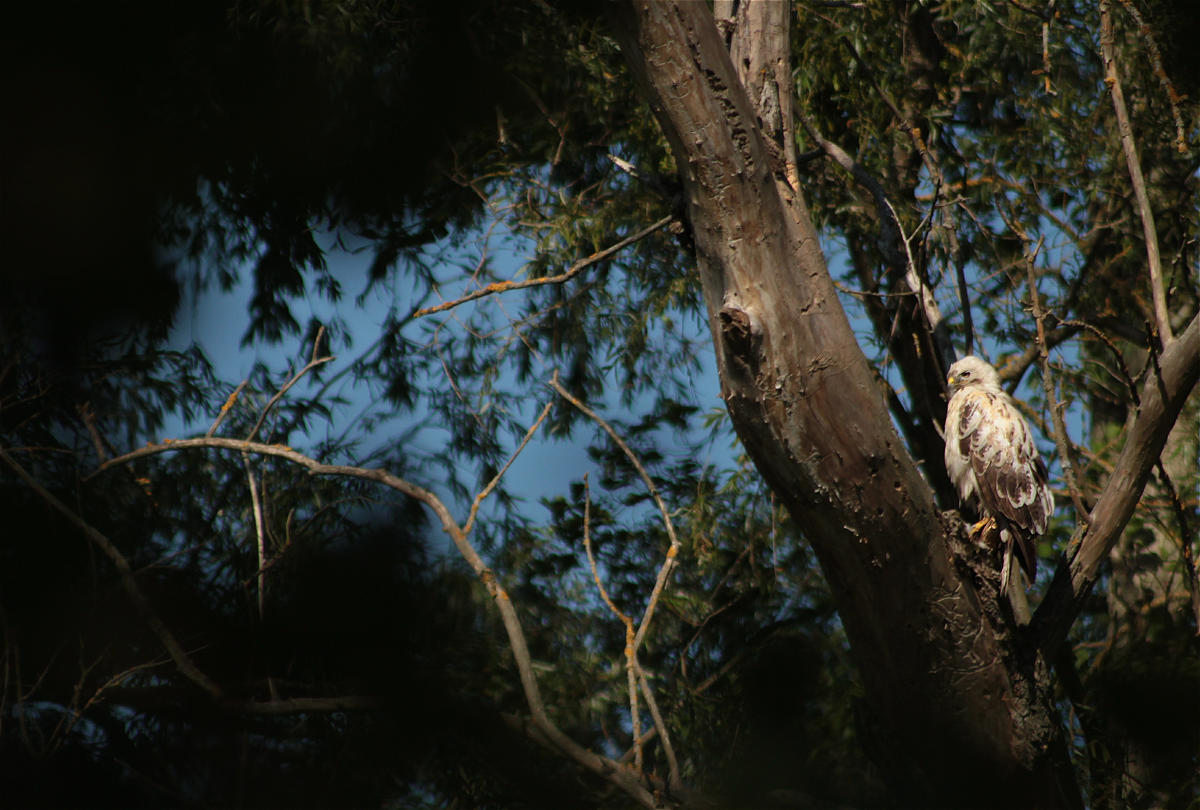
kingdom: Animalia
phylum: Chordata
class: Aves
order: Accipitriformes
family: Accipitridae
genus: Buteo
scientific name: Buteo buteo
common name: Common buzzard
